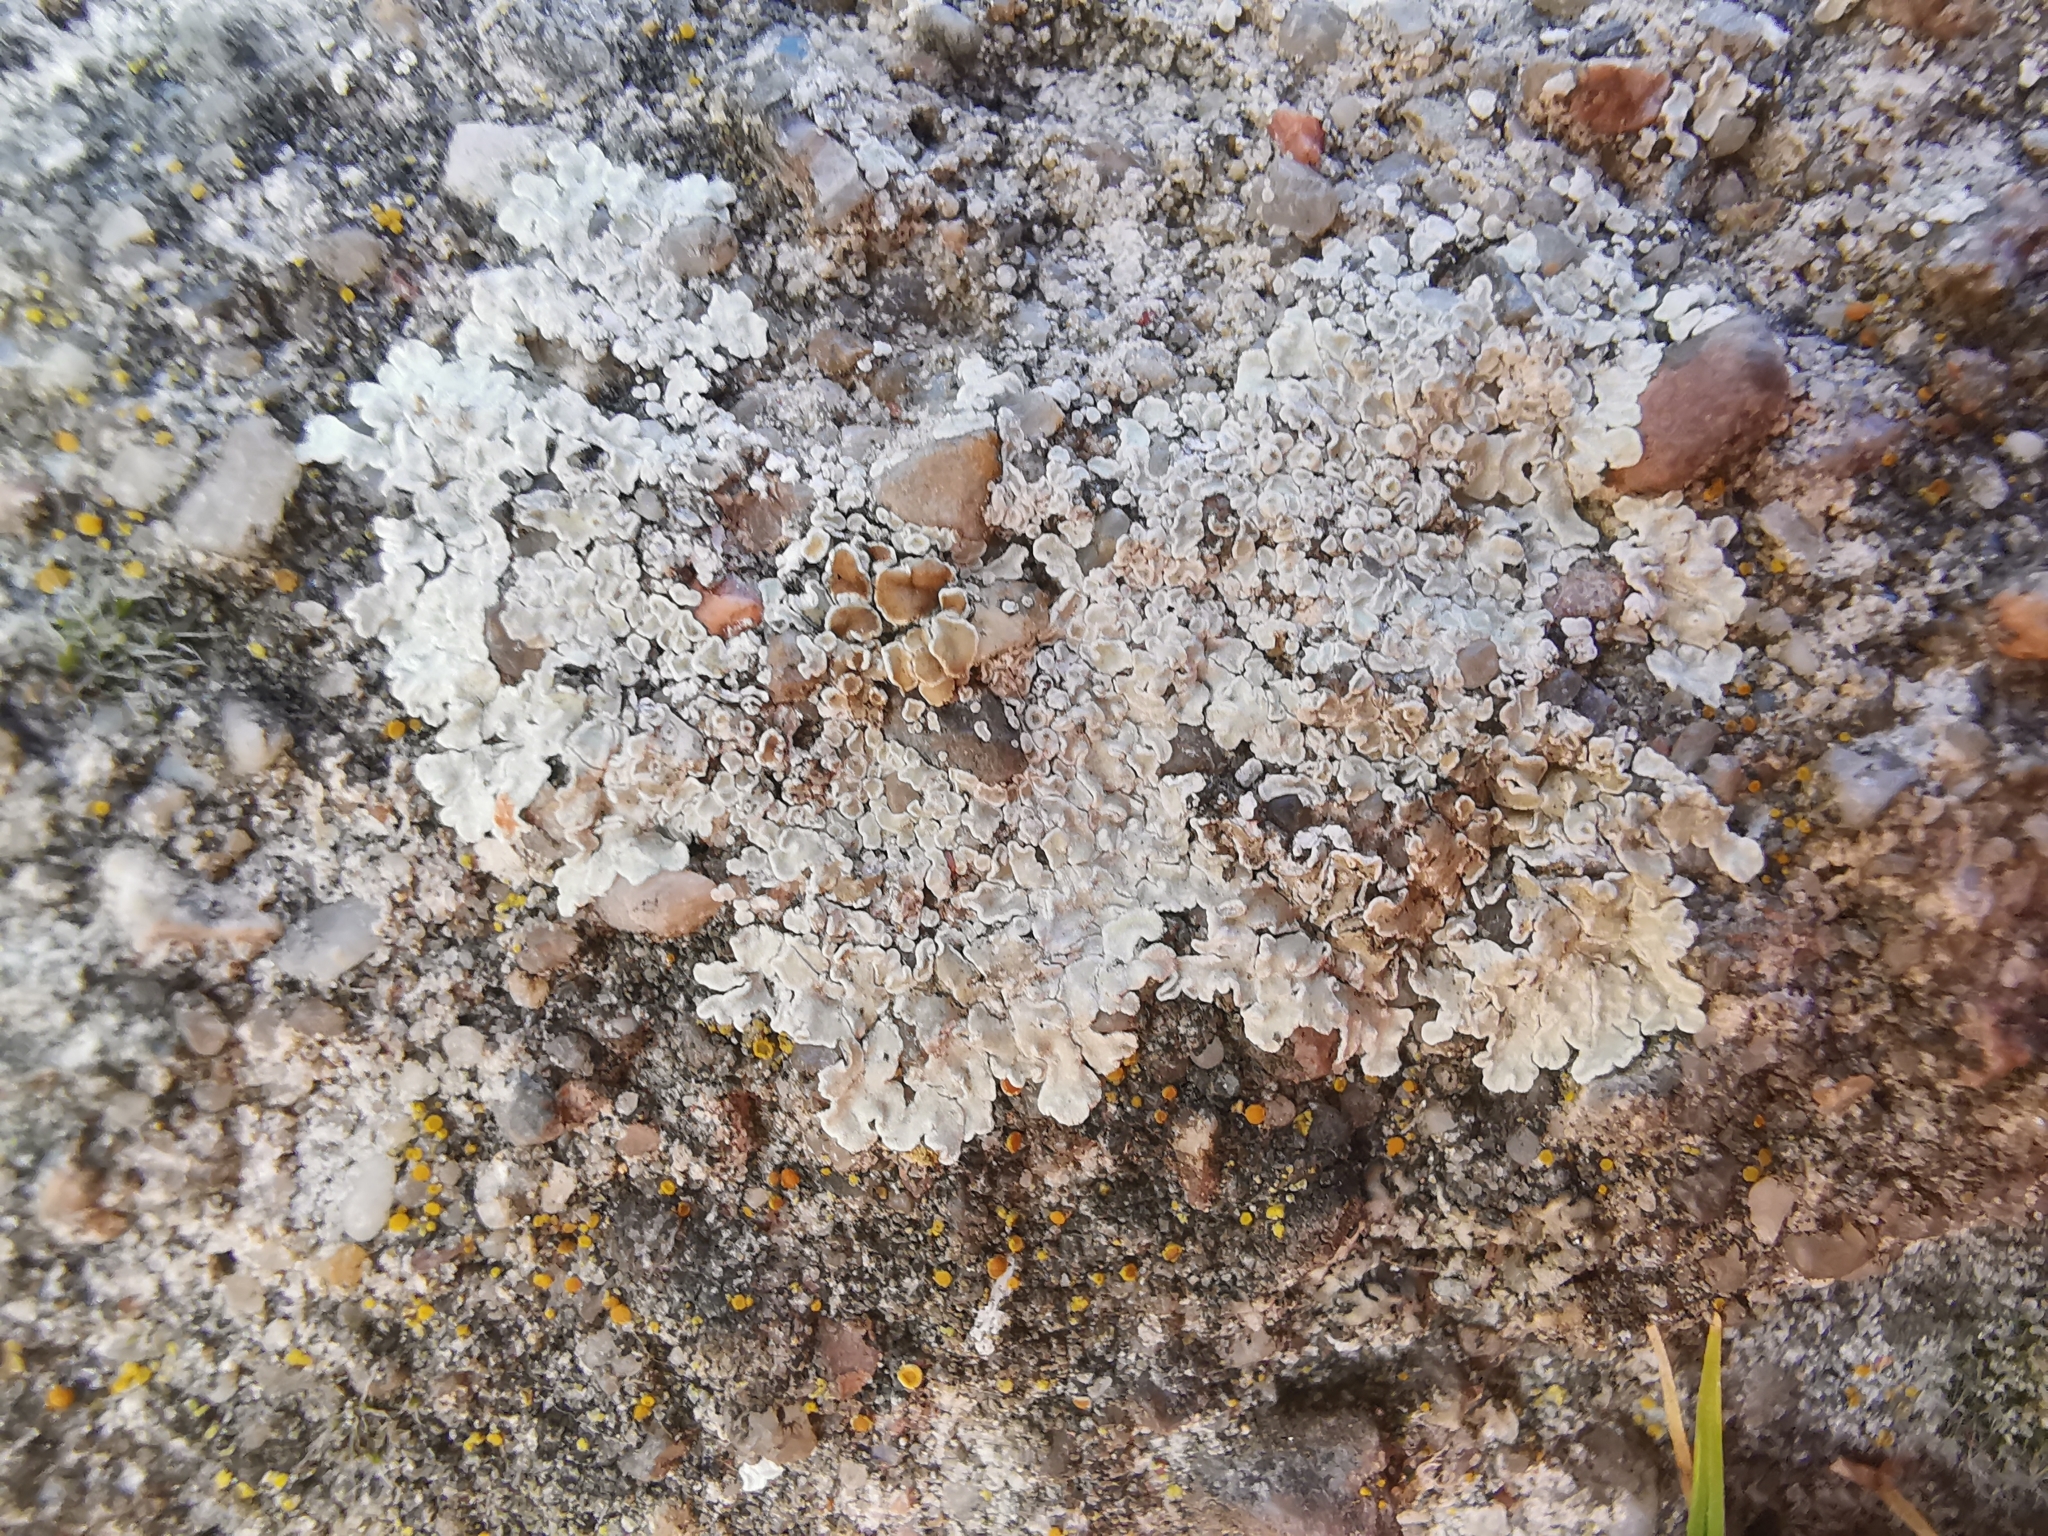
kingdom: Fungi
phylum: Ascomycota
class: Lecanoromycetes
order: Lecanorales
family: Lecanoraceae
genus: Protoparmeliopsis
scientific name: Protoparmeliopsis muralis
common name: Stonewall rim lichen
